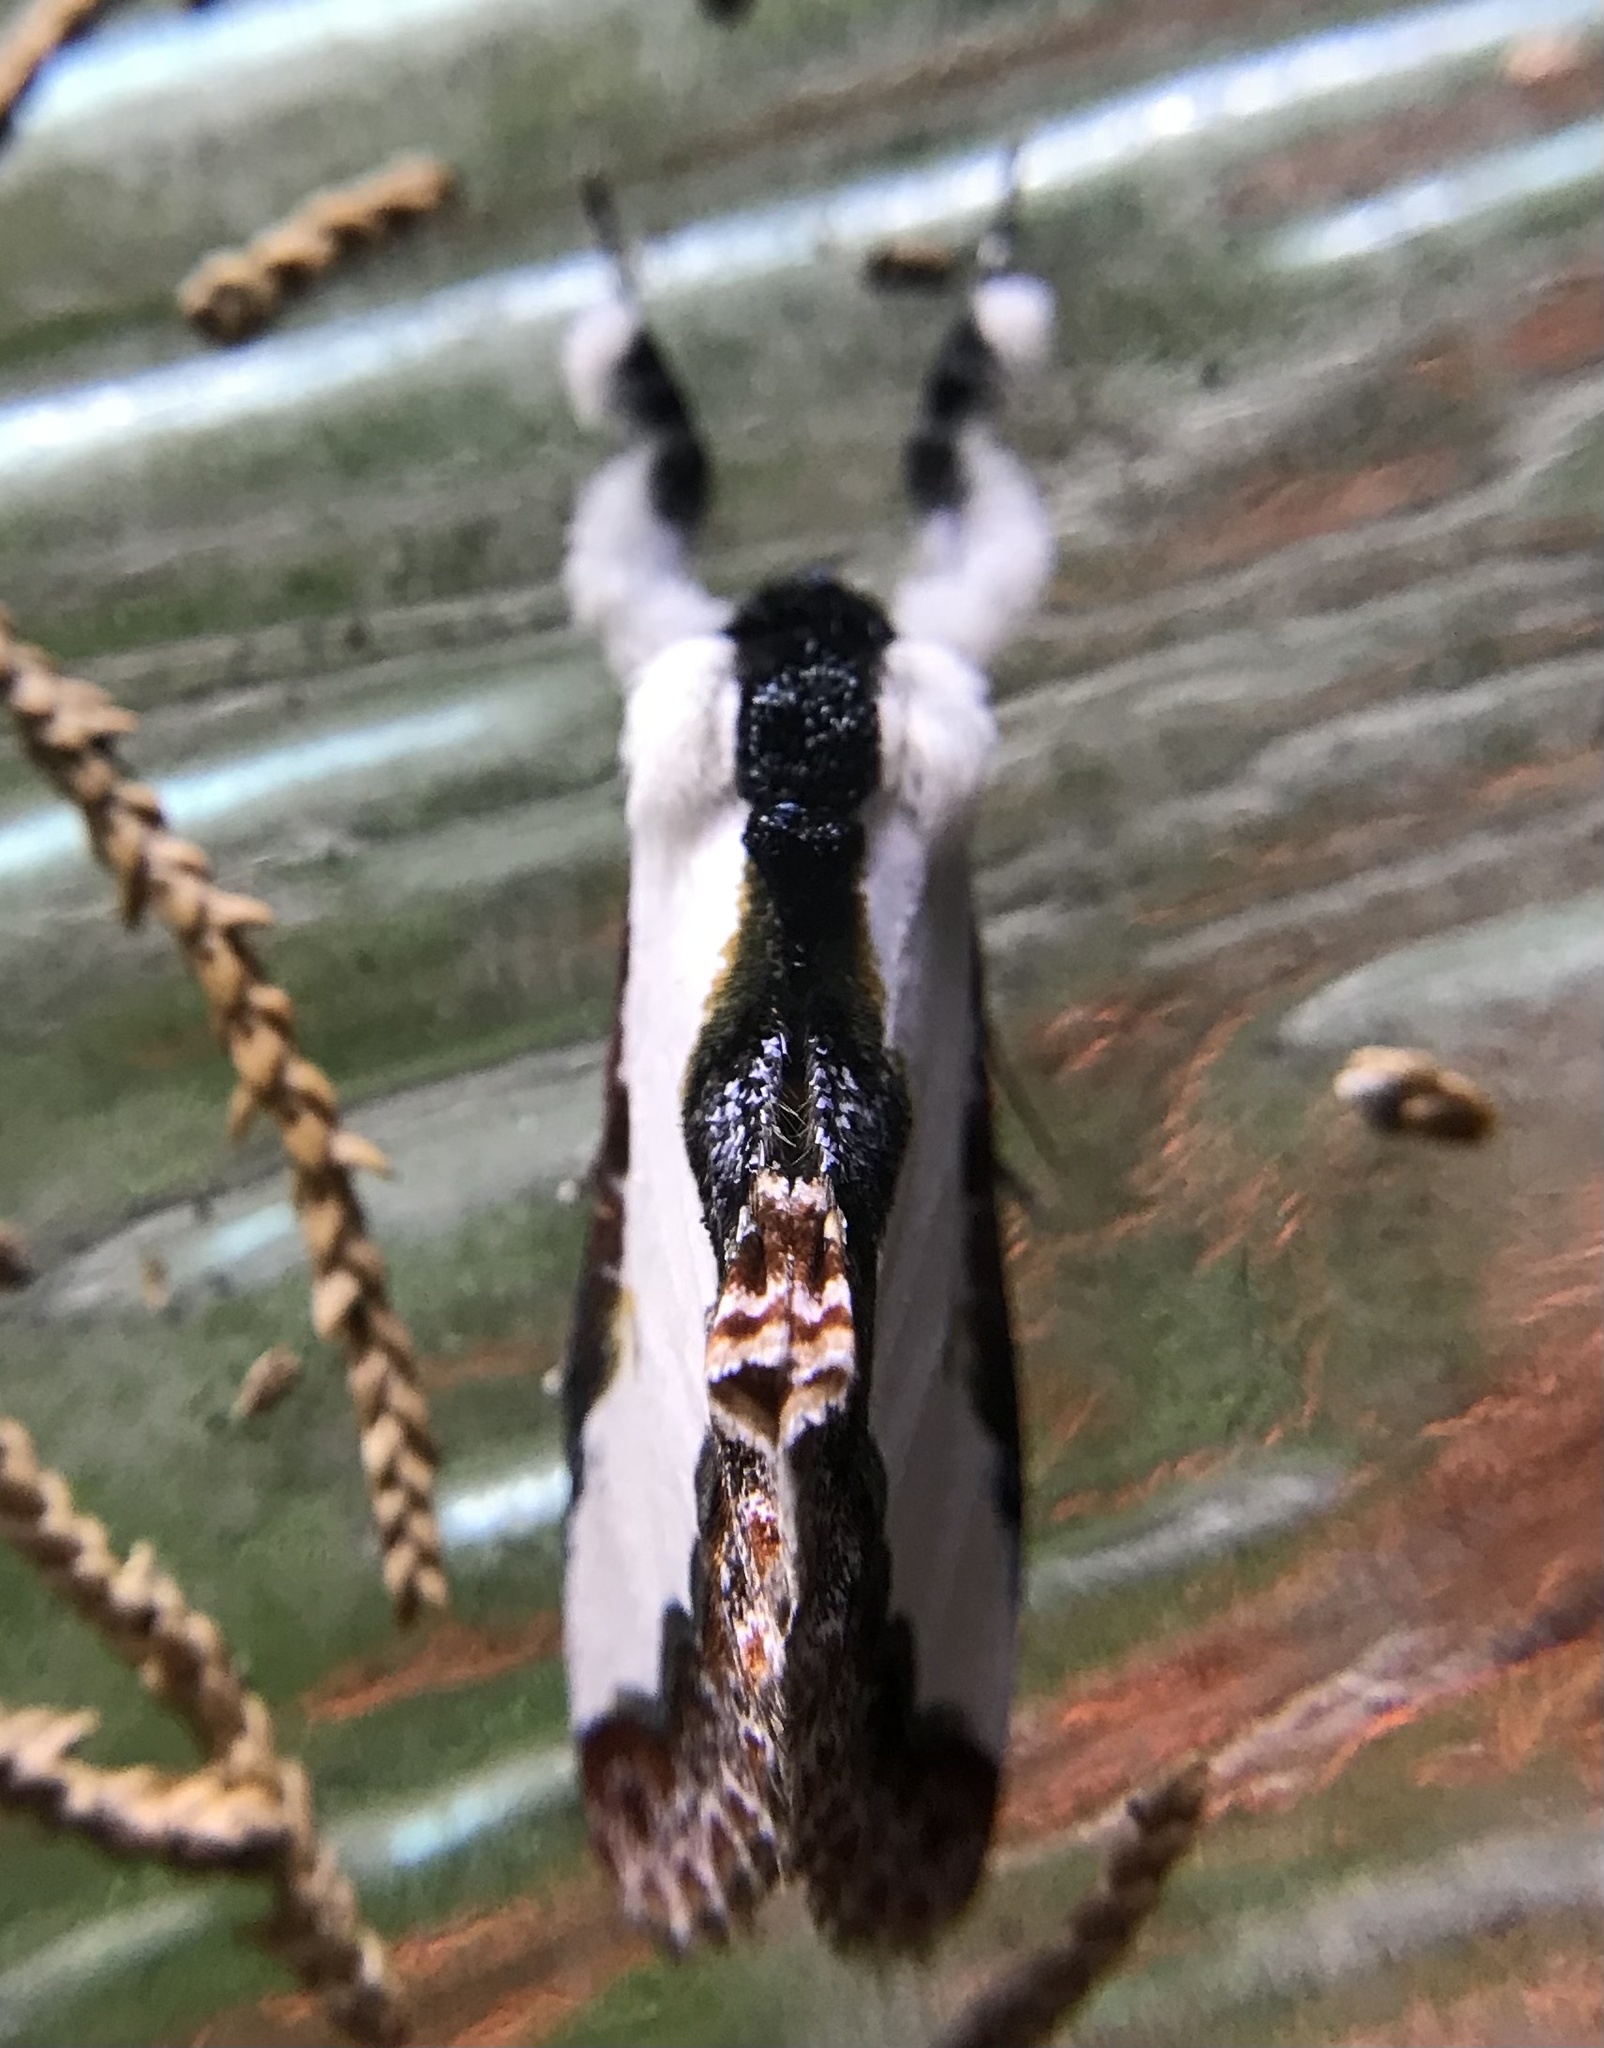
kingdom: Animalia
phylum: Arthropoda
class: Insecta
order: Lepidoptera
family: Noctuidae
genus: Eudryas
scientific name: Eudryas unio
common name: Pearly wood-nymph
